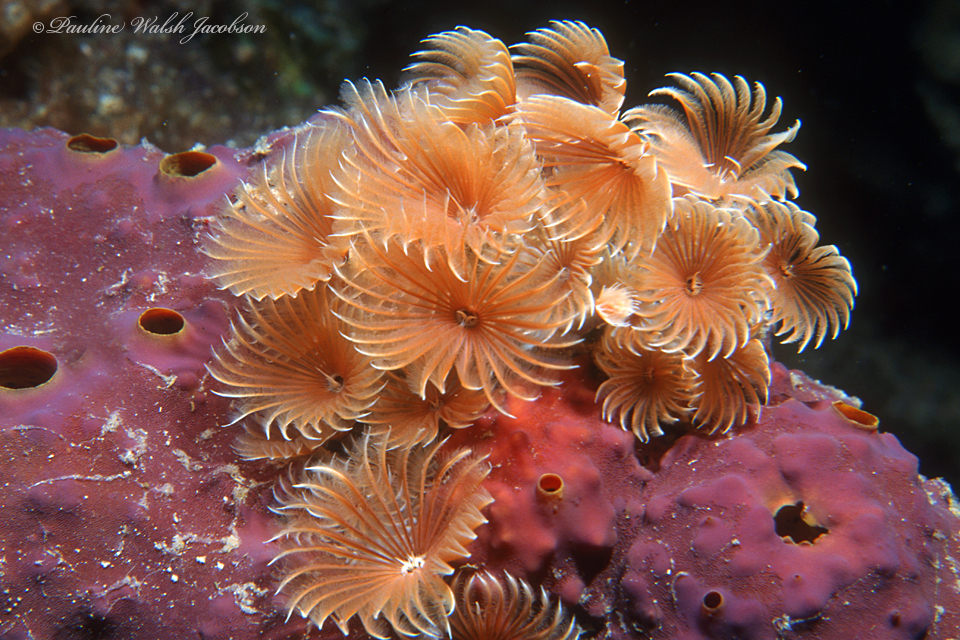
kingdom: Animalia
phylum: Annelida
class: Polychaeta
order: Sabellida
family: Sabellidae
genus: Bispira
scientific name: Bispira brunnea
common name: Social feather duster
